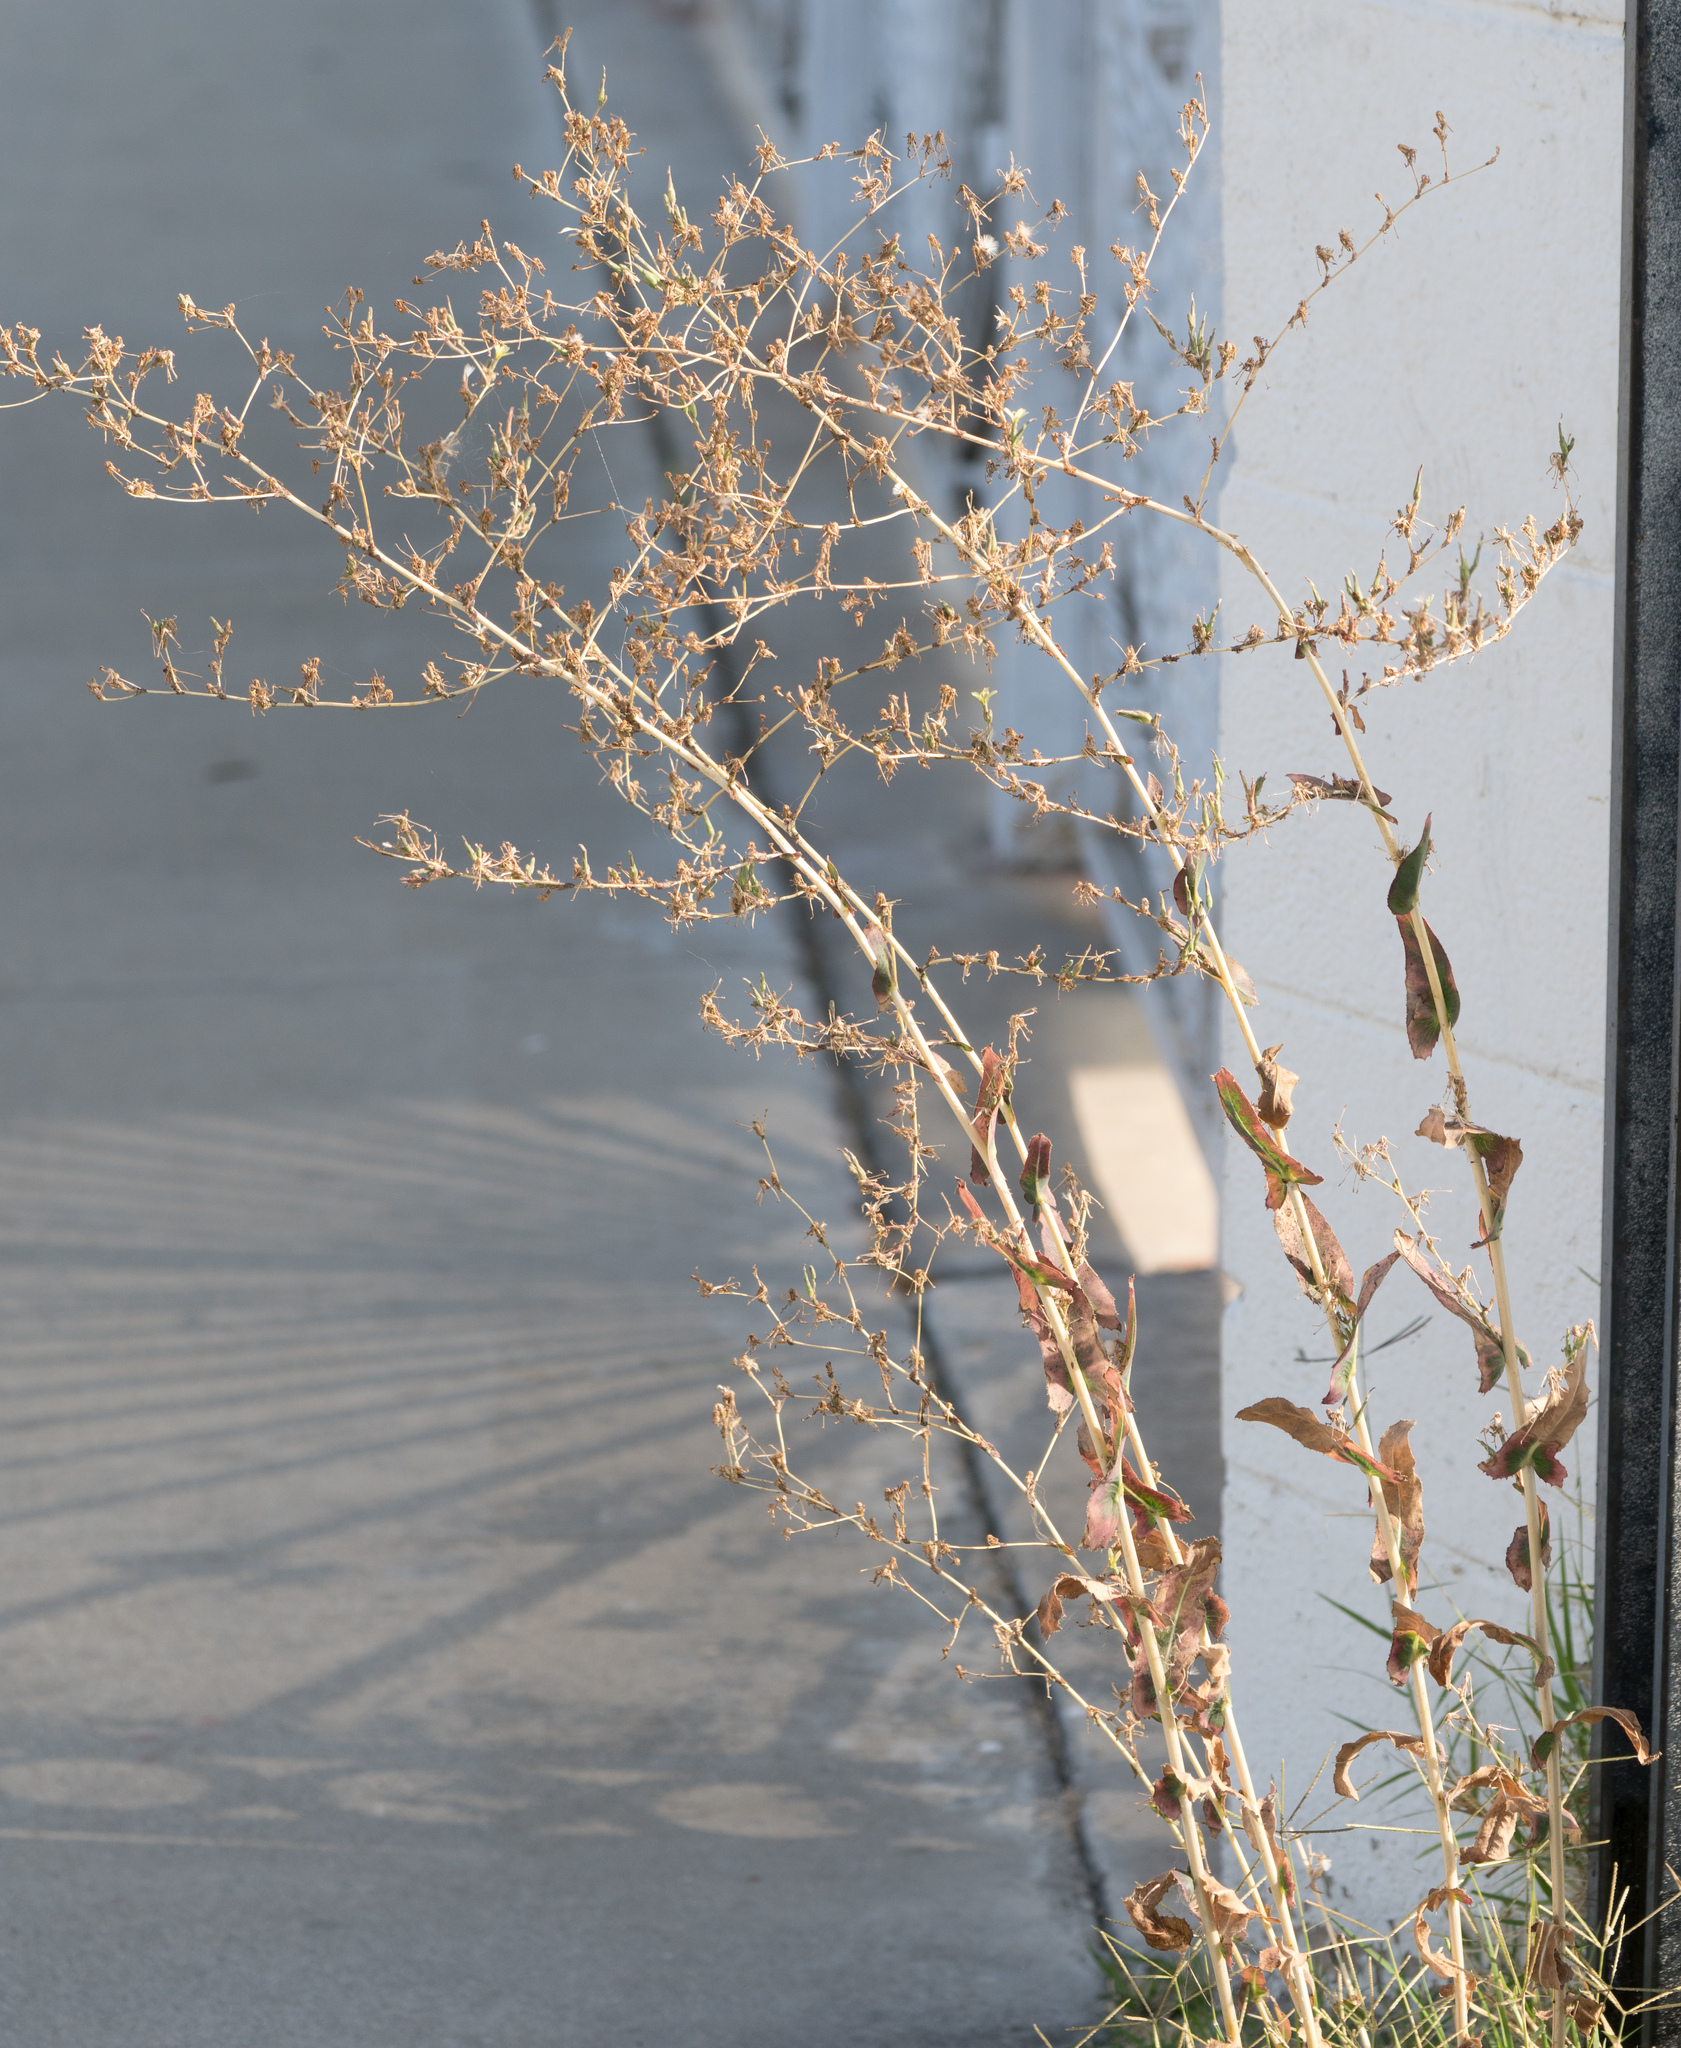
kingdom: Plantae
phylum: Tracheophyta
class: Magnoliopsida
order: Asterales
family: Asteraceae
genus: Lactuca
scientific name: Lactuca serriola
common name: Prickly lettuce
